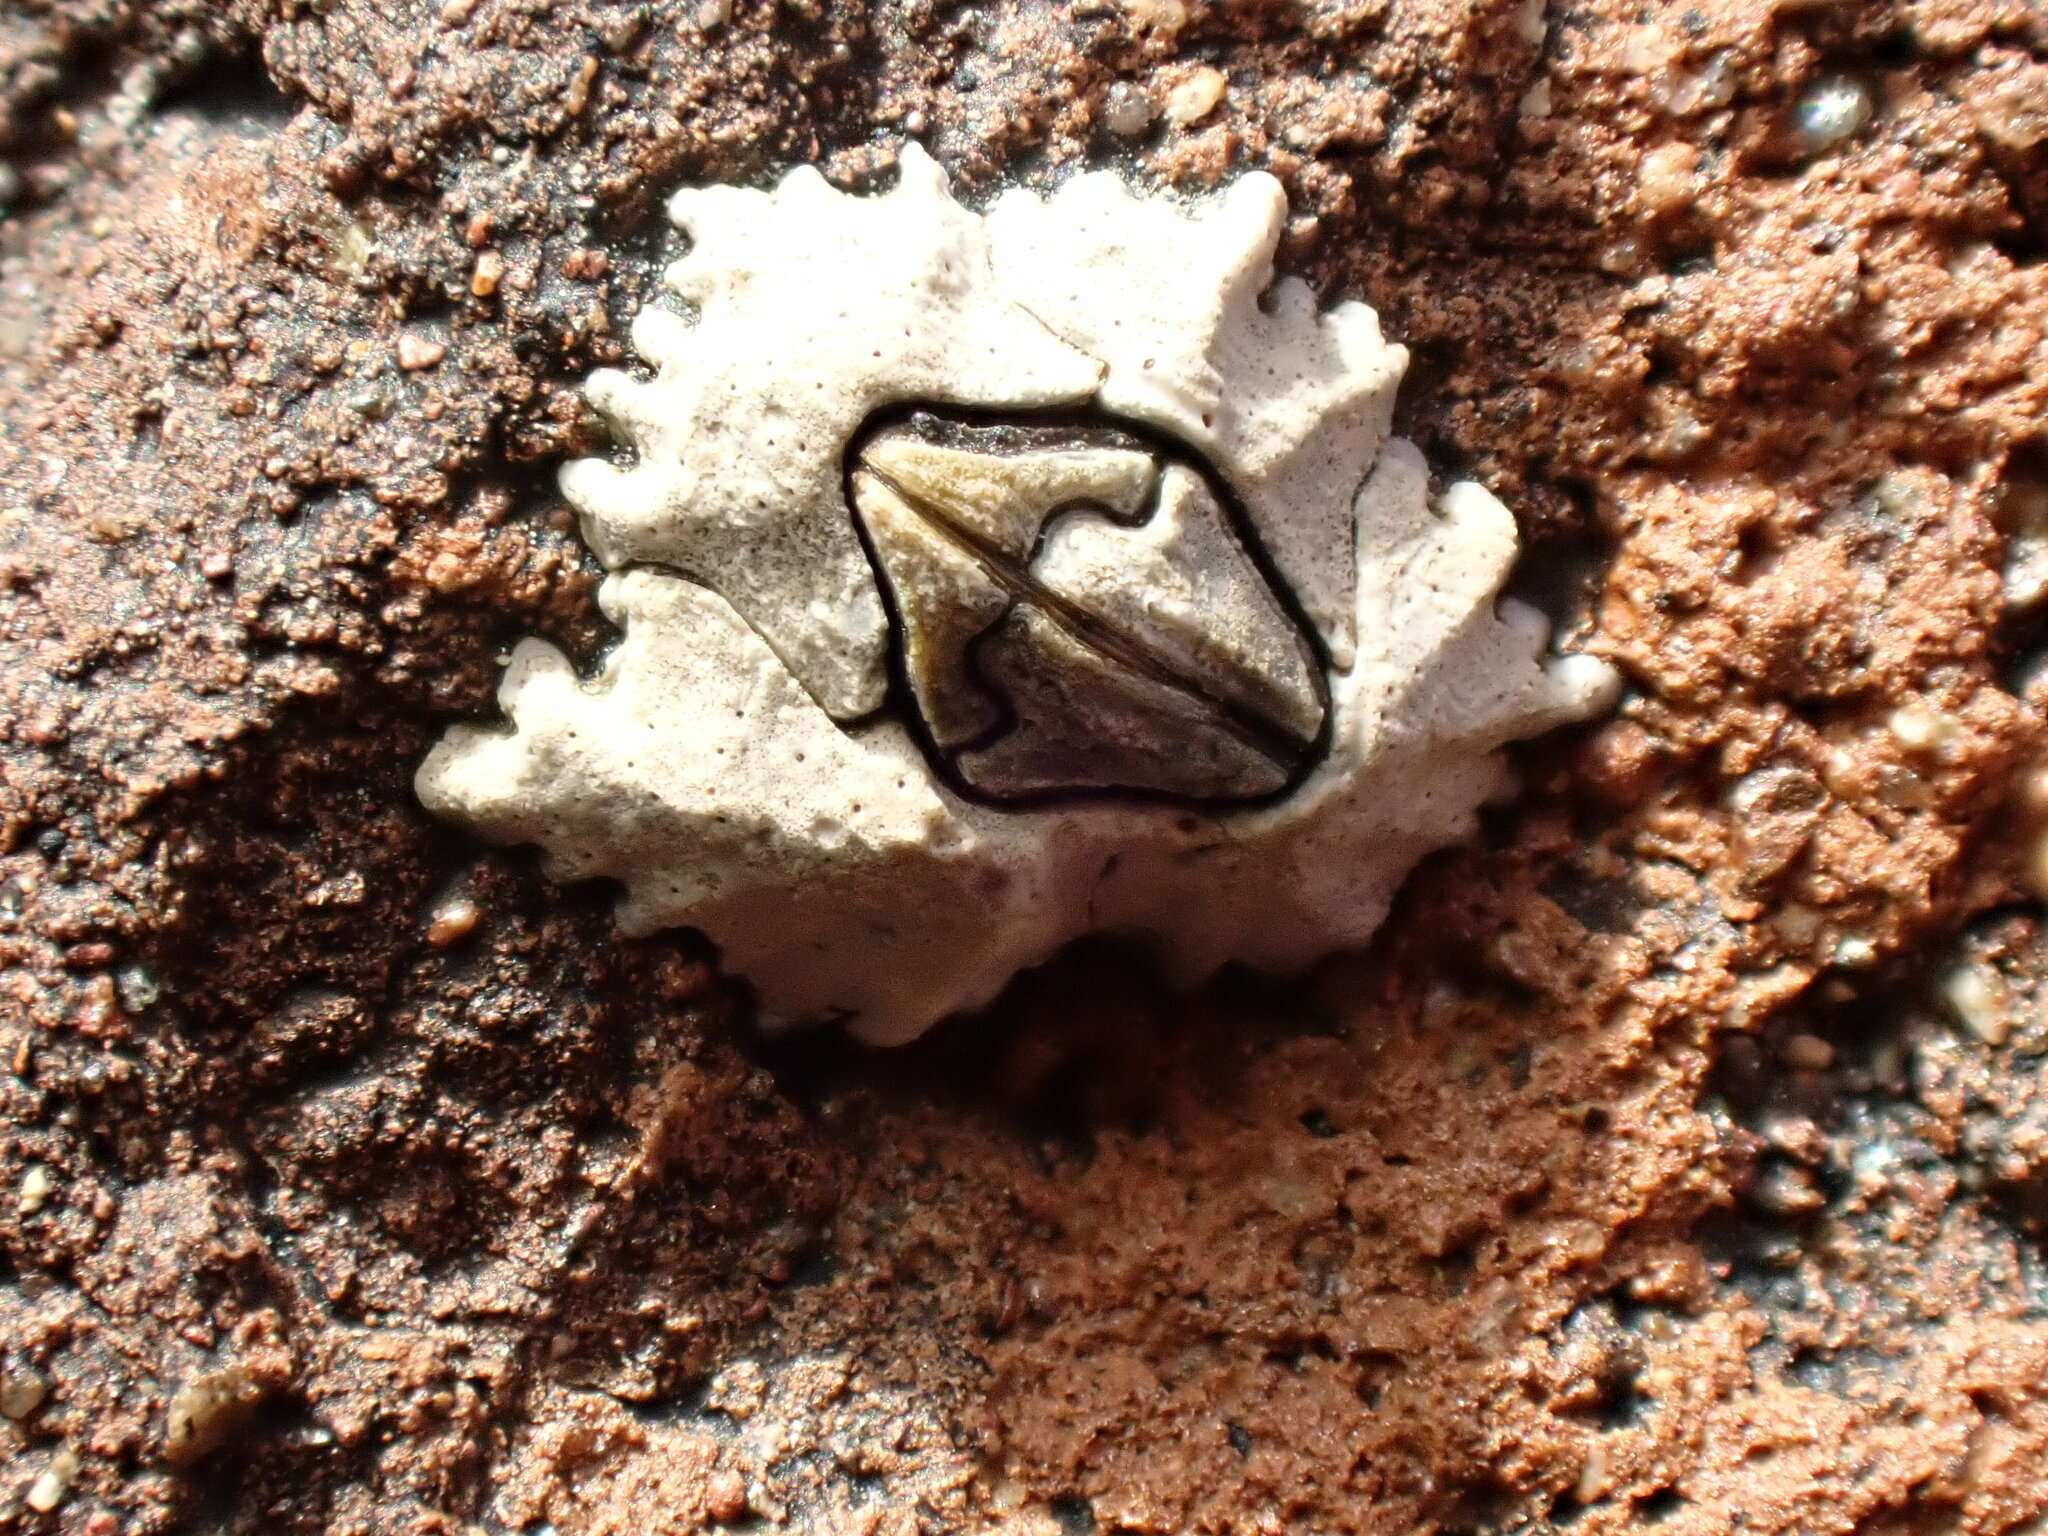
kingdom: Animalia
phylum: Arthropoda
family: Elminiidae
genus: Austrominius
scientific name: Austrominius modestus
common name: Australasian barnacle
